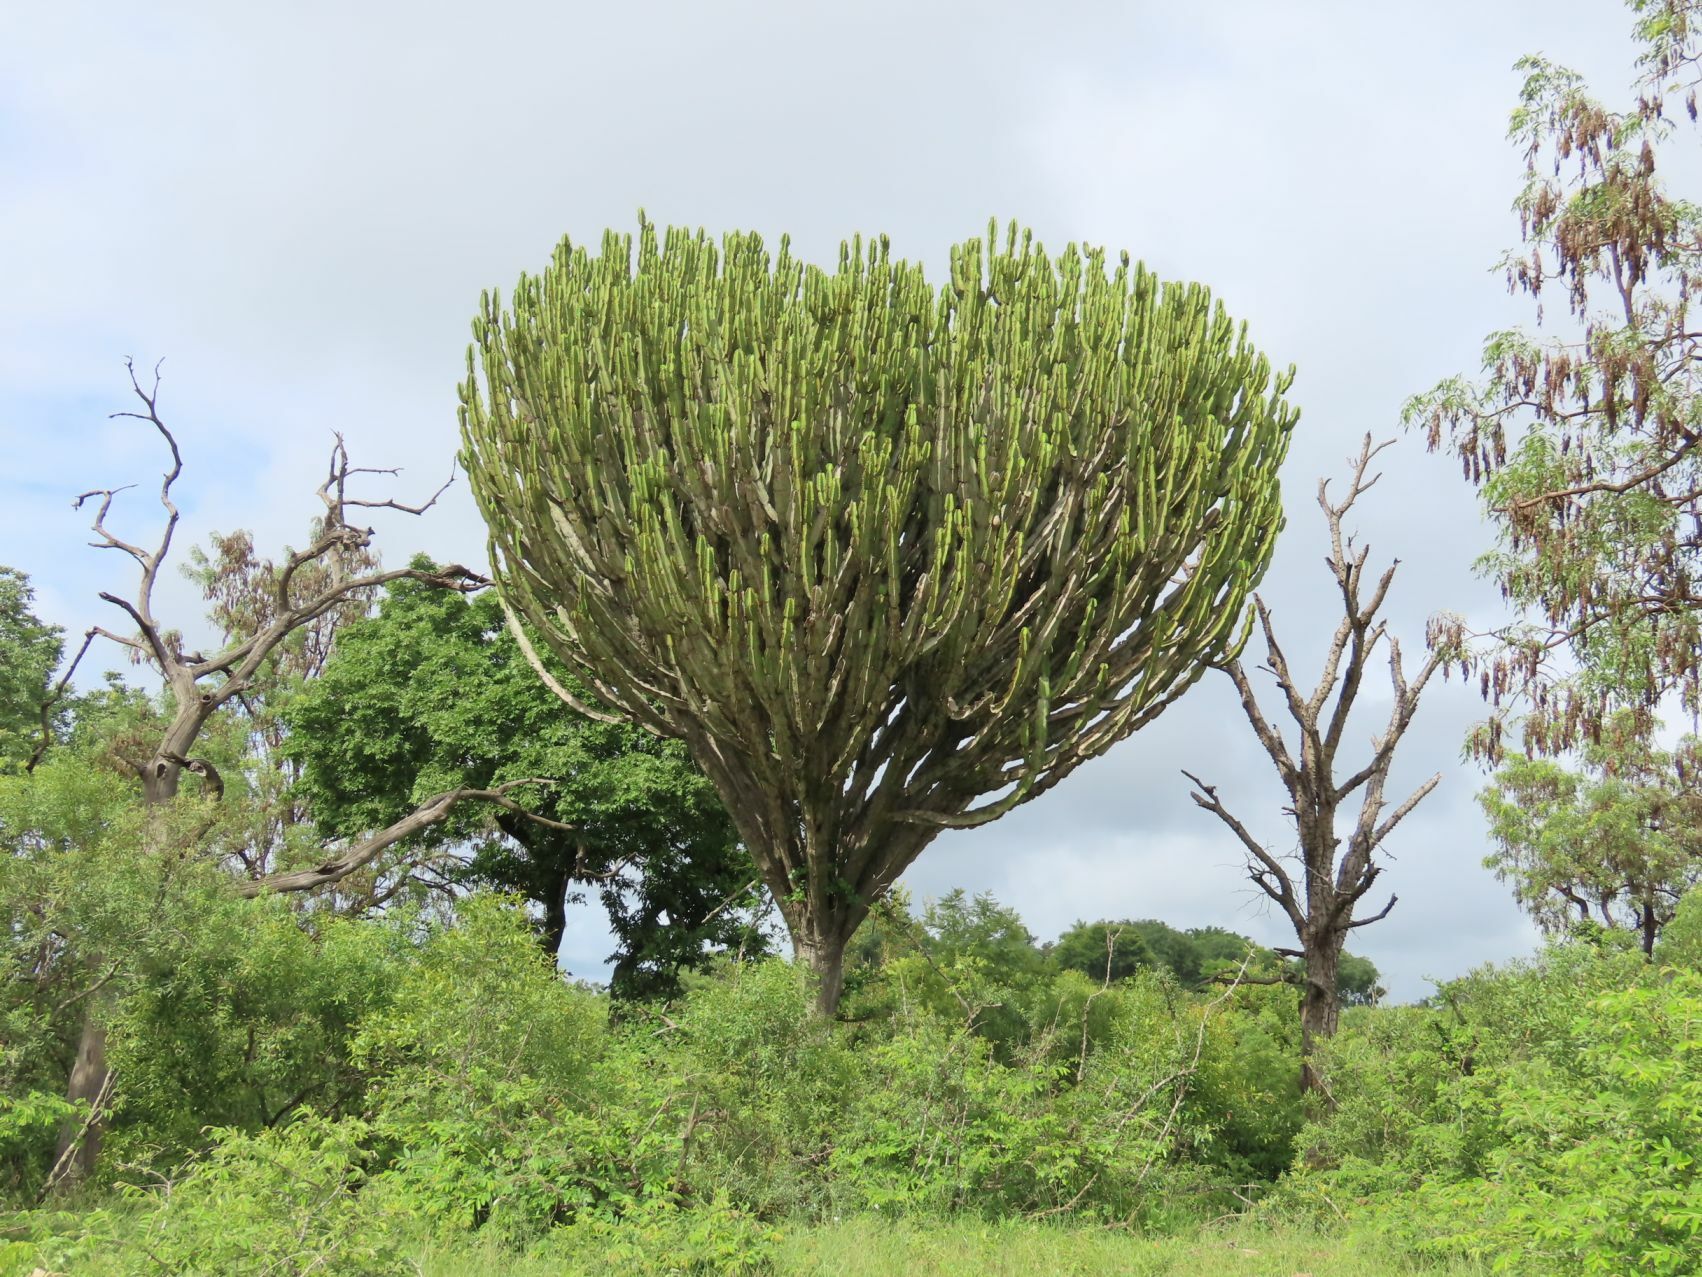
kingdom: Plantae
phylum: Tracheophyta
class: Magnoliopsida
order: Malpighiales
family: Euphorbiaceae
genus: Euphorbia
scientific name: Euphorbia ingens
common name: Cactus spurge
